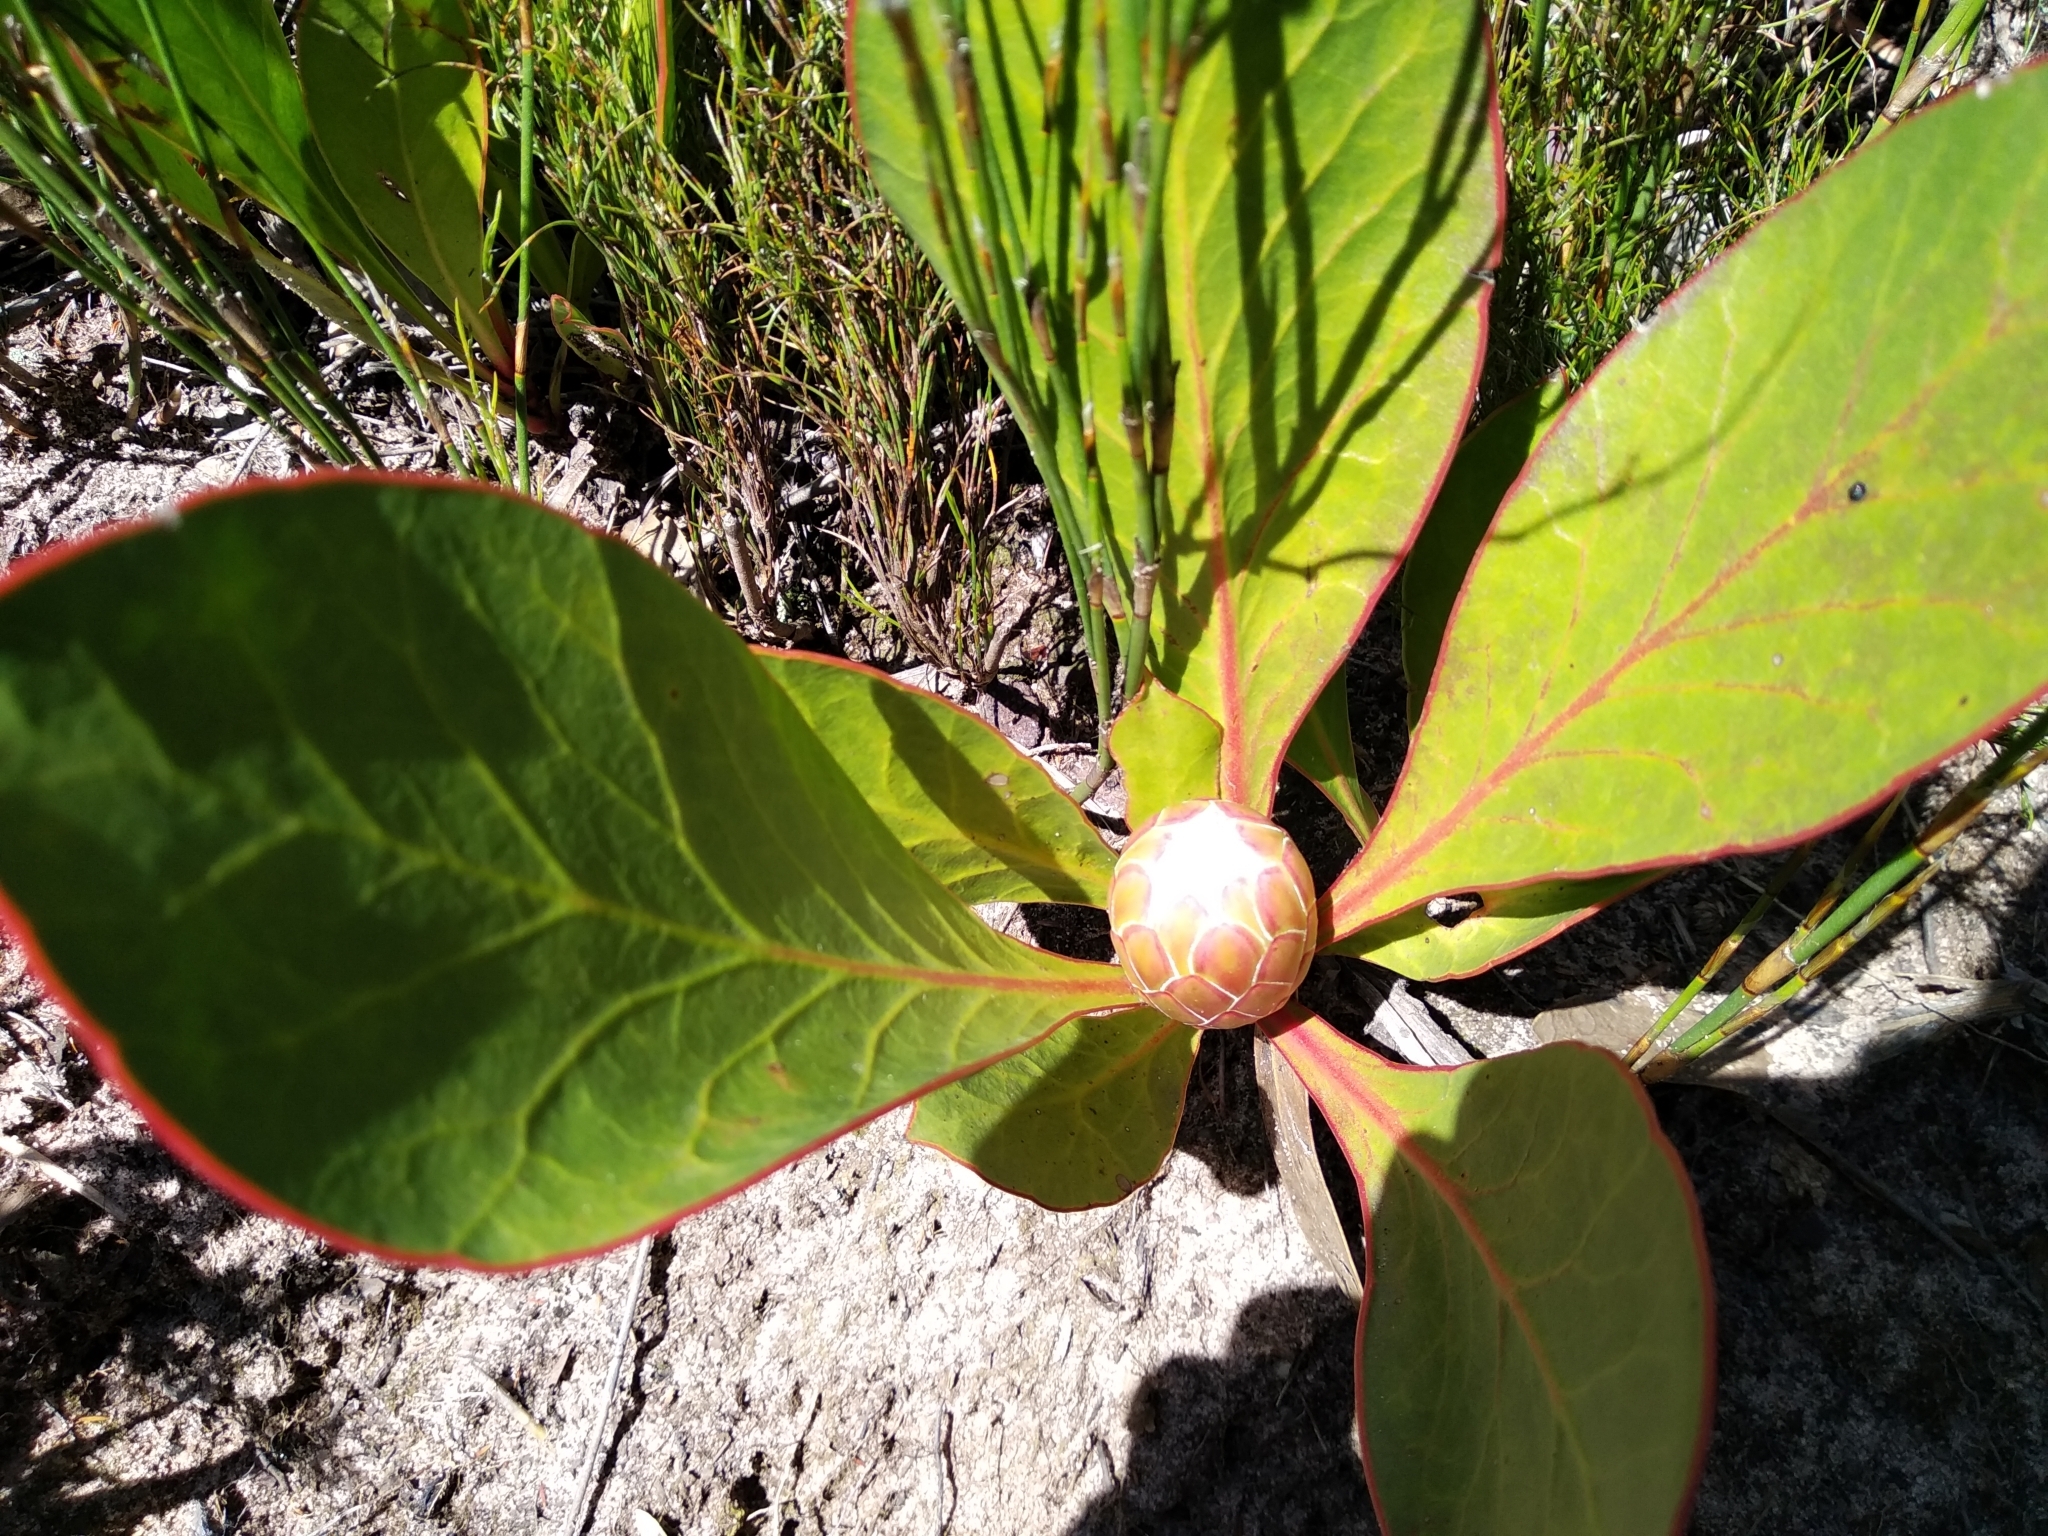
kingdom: Plantae
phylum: Tracheophyta
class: Magnoliopsida
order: Proteales
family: Proteaceae
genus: Protea
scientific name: Protea acaulos
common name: Common ground sugarbush
